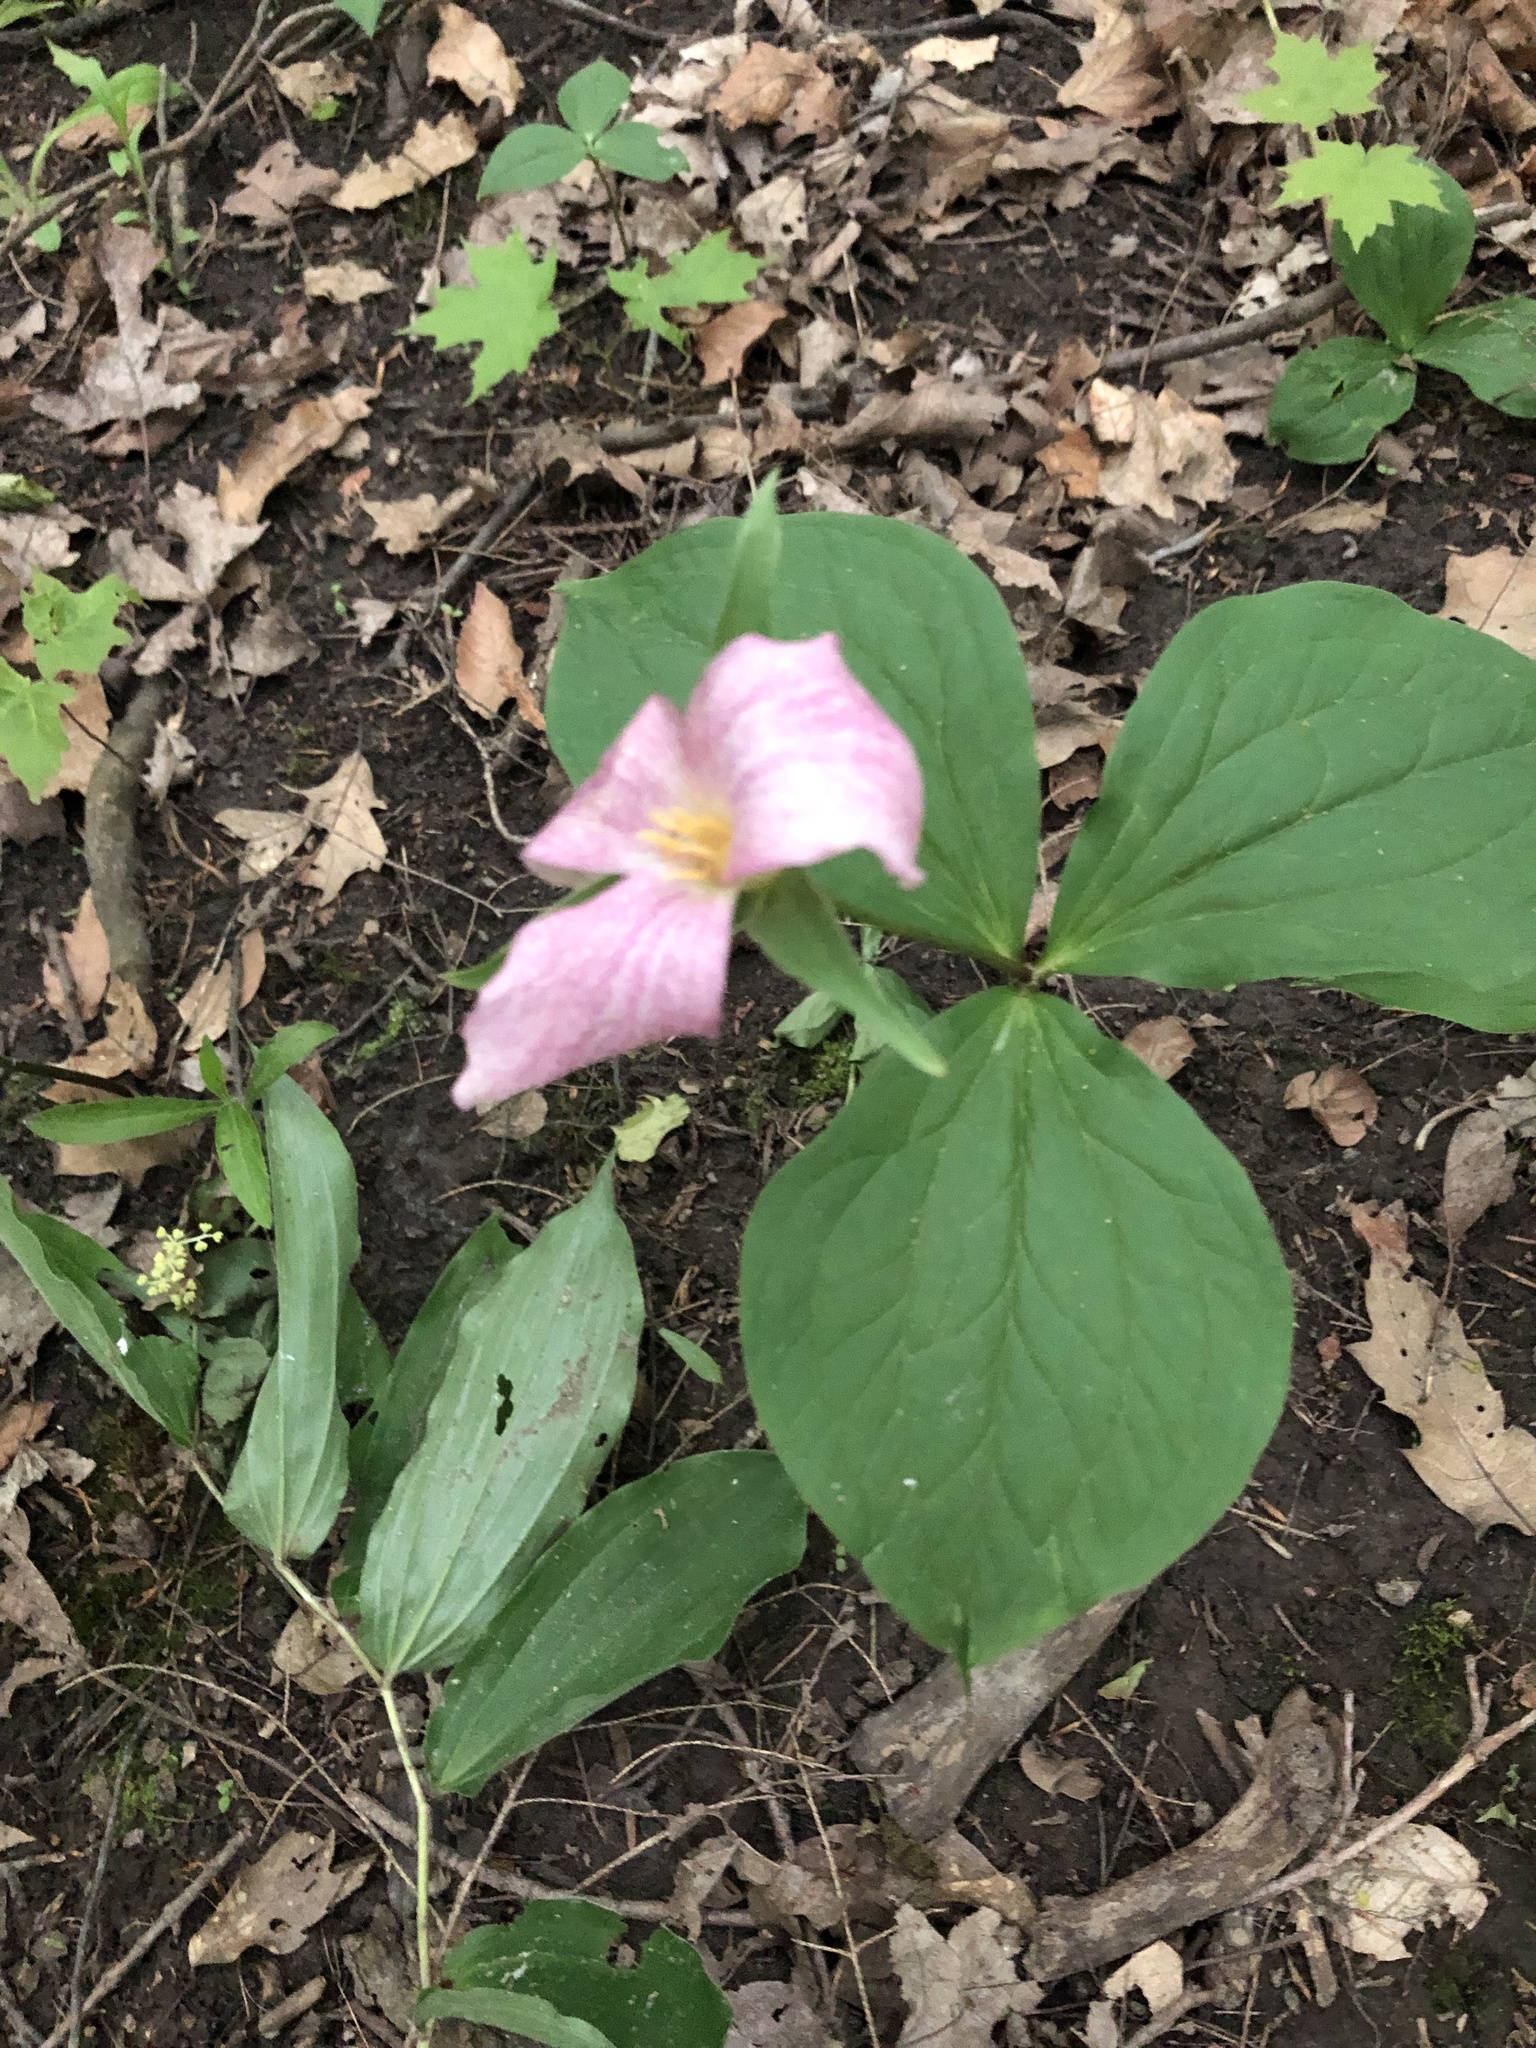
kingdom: Plantae
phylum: Tracheophyta
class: Liliopsida
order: Liliales
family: Melanthiaceae
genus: Trillium
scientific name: Trillium grandiflorum
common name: Great white trillium
